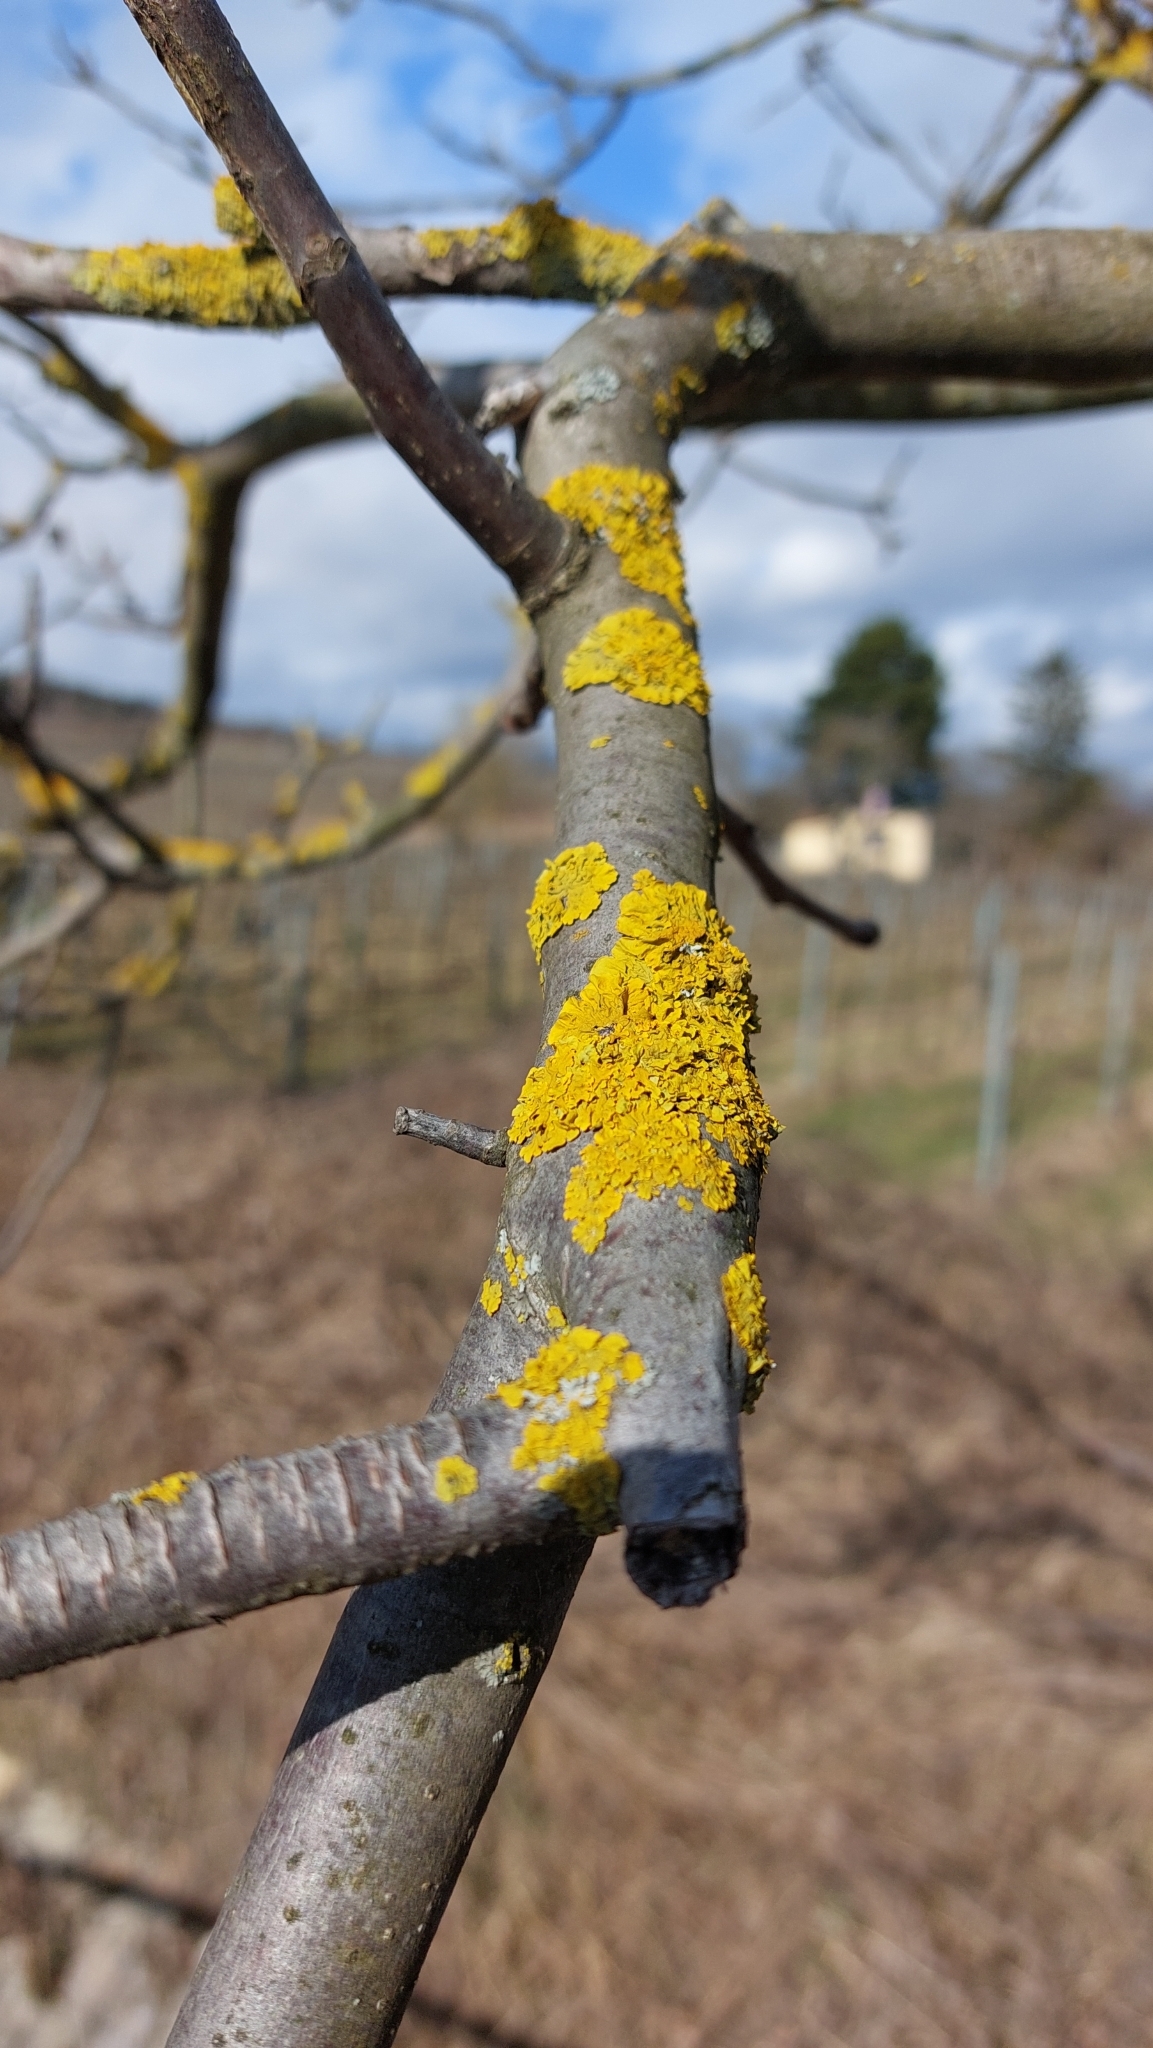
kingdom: Fungi
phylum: Ascomycota
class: Lecanoromycetes
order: Teloschistales
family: Teloschistaceae
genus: Xanthoria
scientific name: Xanthoria parietina
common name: Common orange lichen
